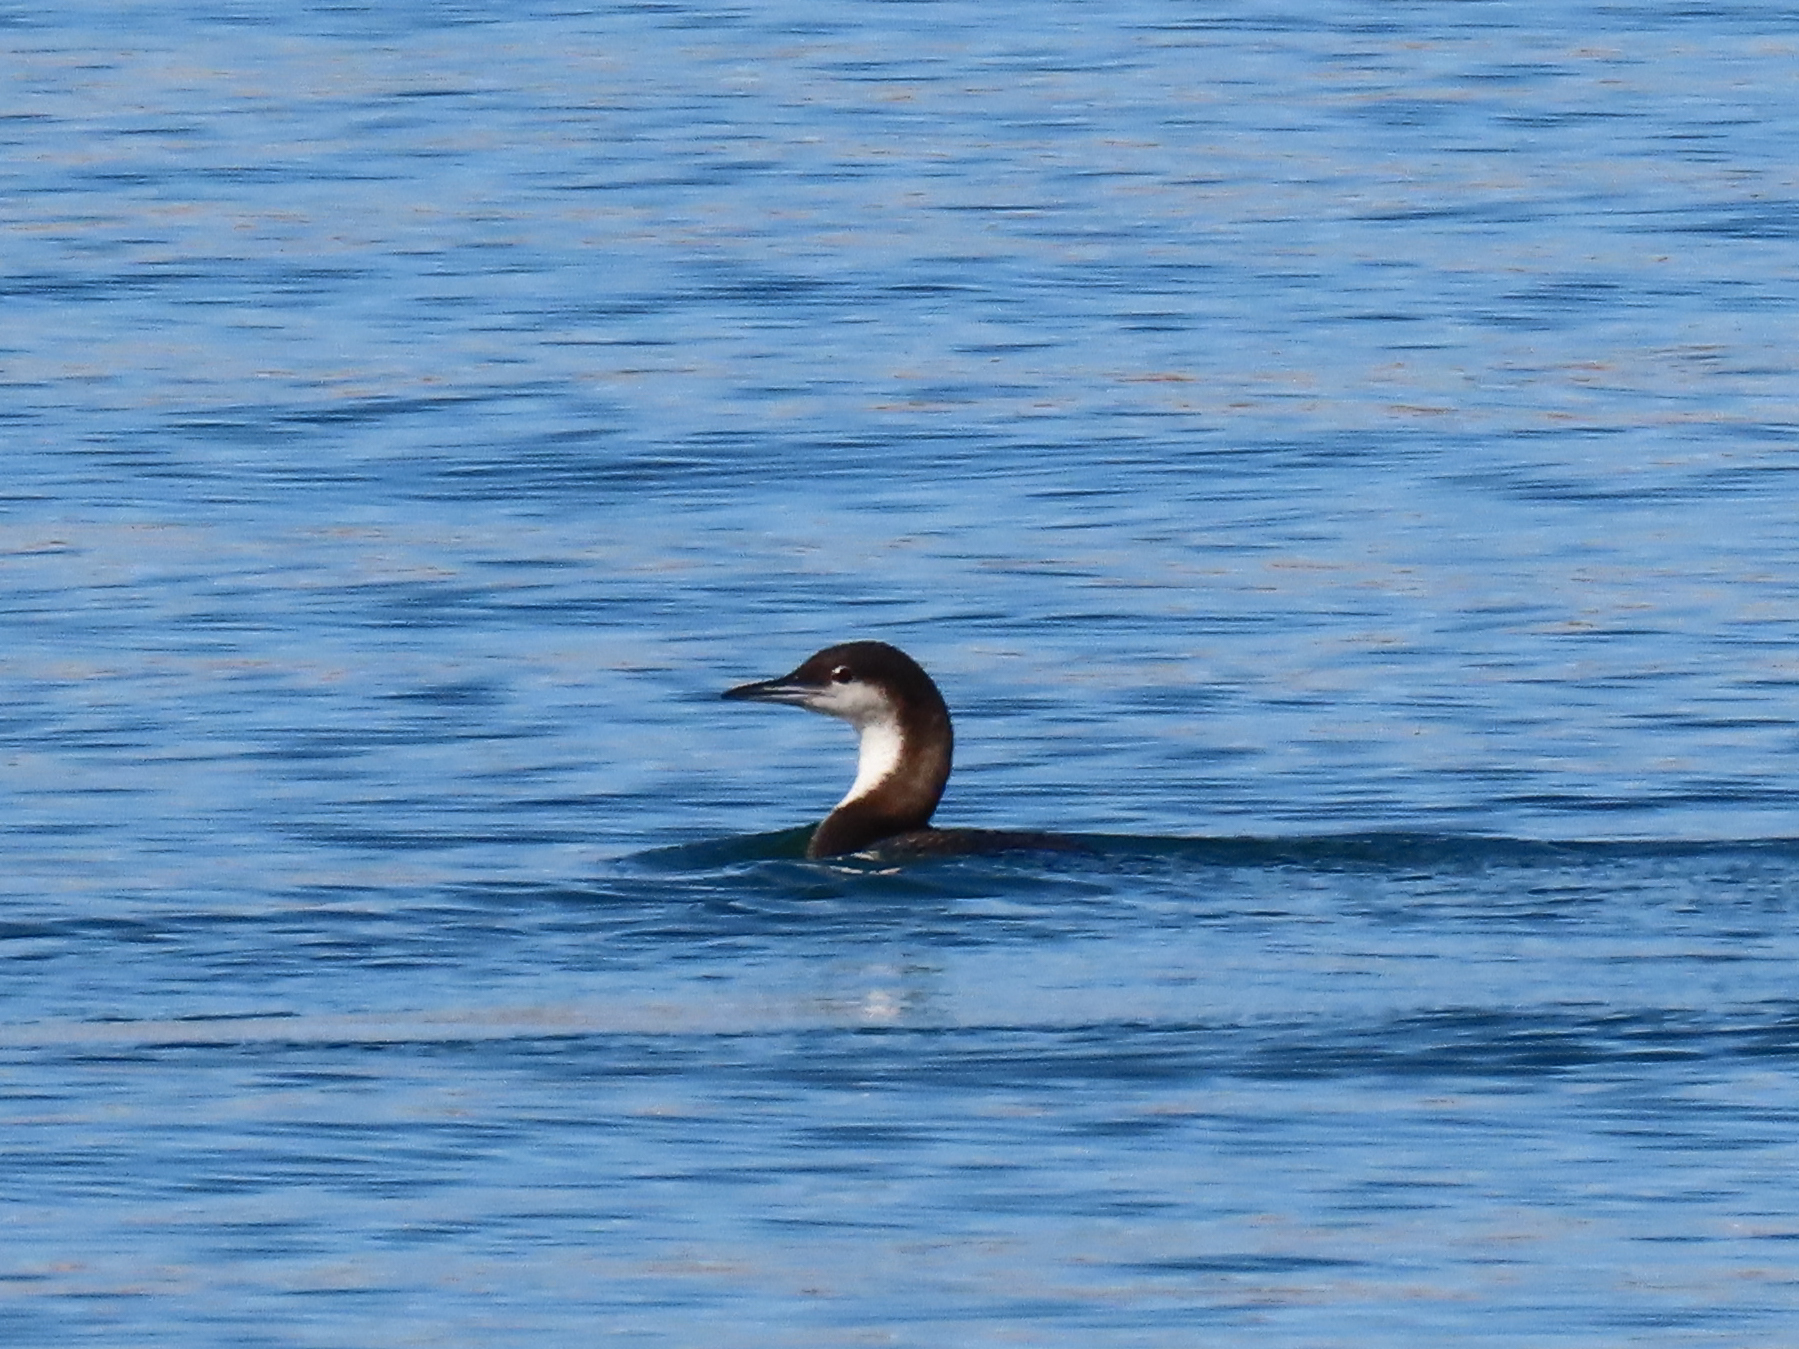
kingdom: Animalia
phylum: Chordata
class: Aves
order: Gaviiformes
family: Gaviidae
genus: Gavia
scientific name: Gavia pacifica
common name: Pacific loon
